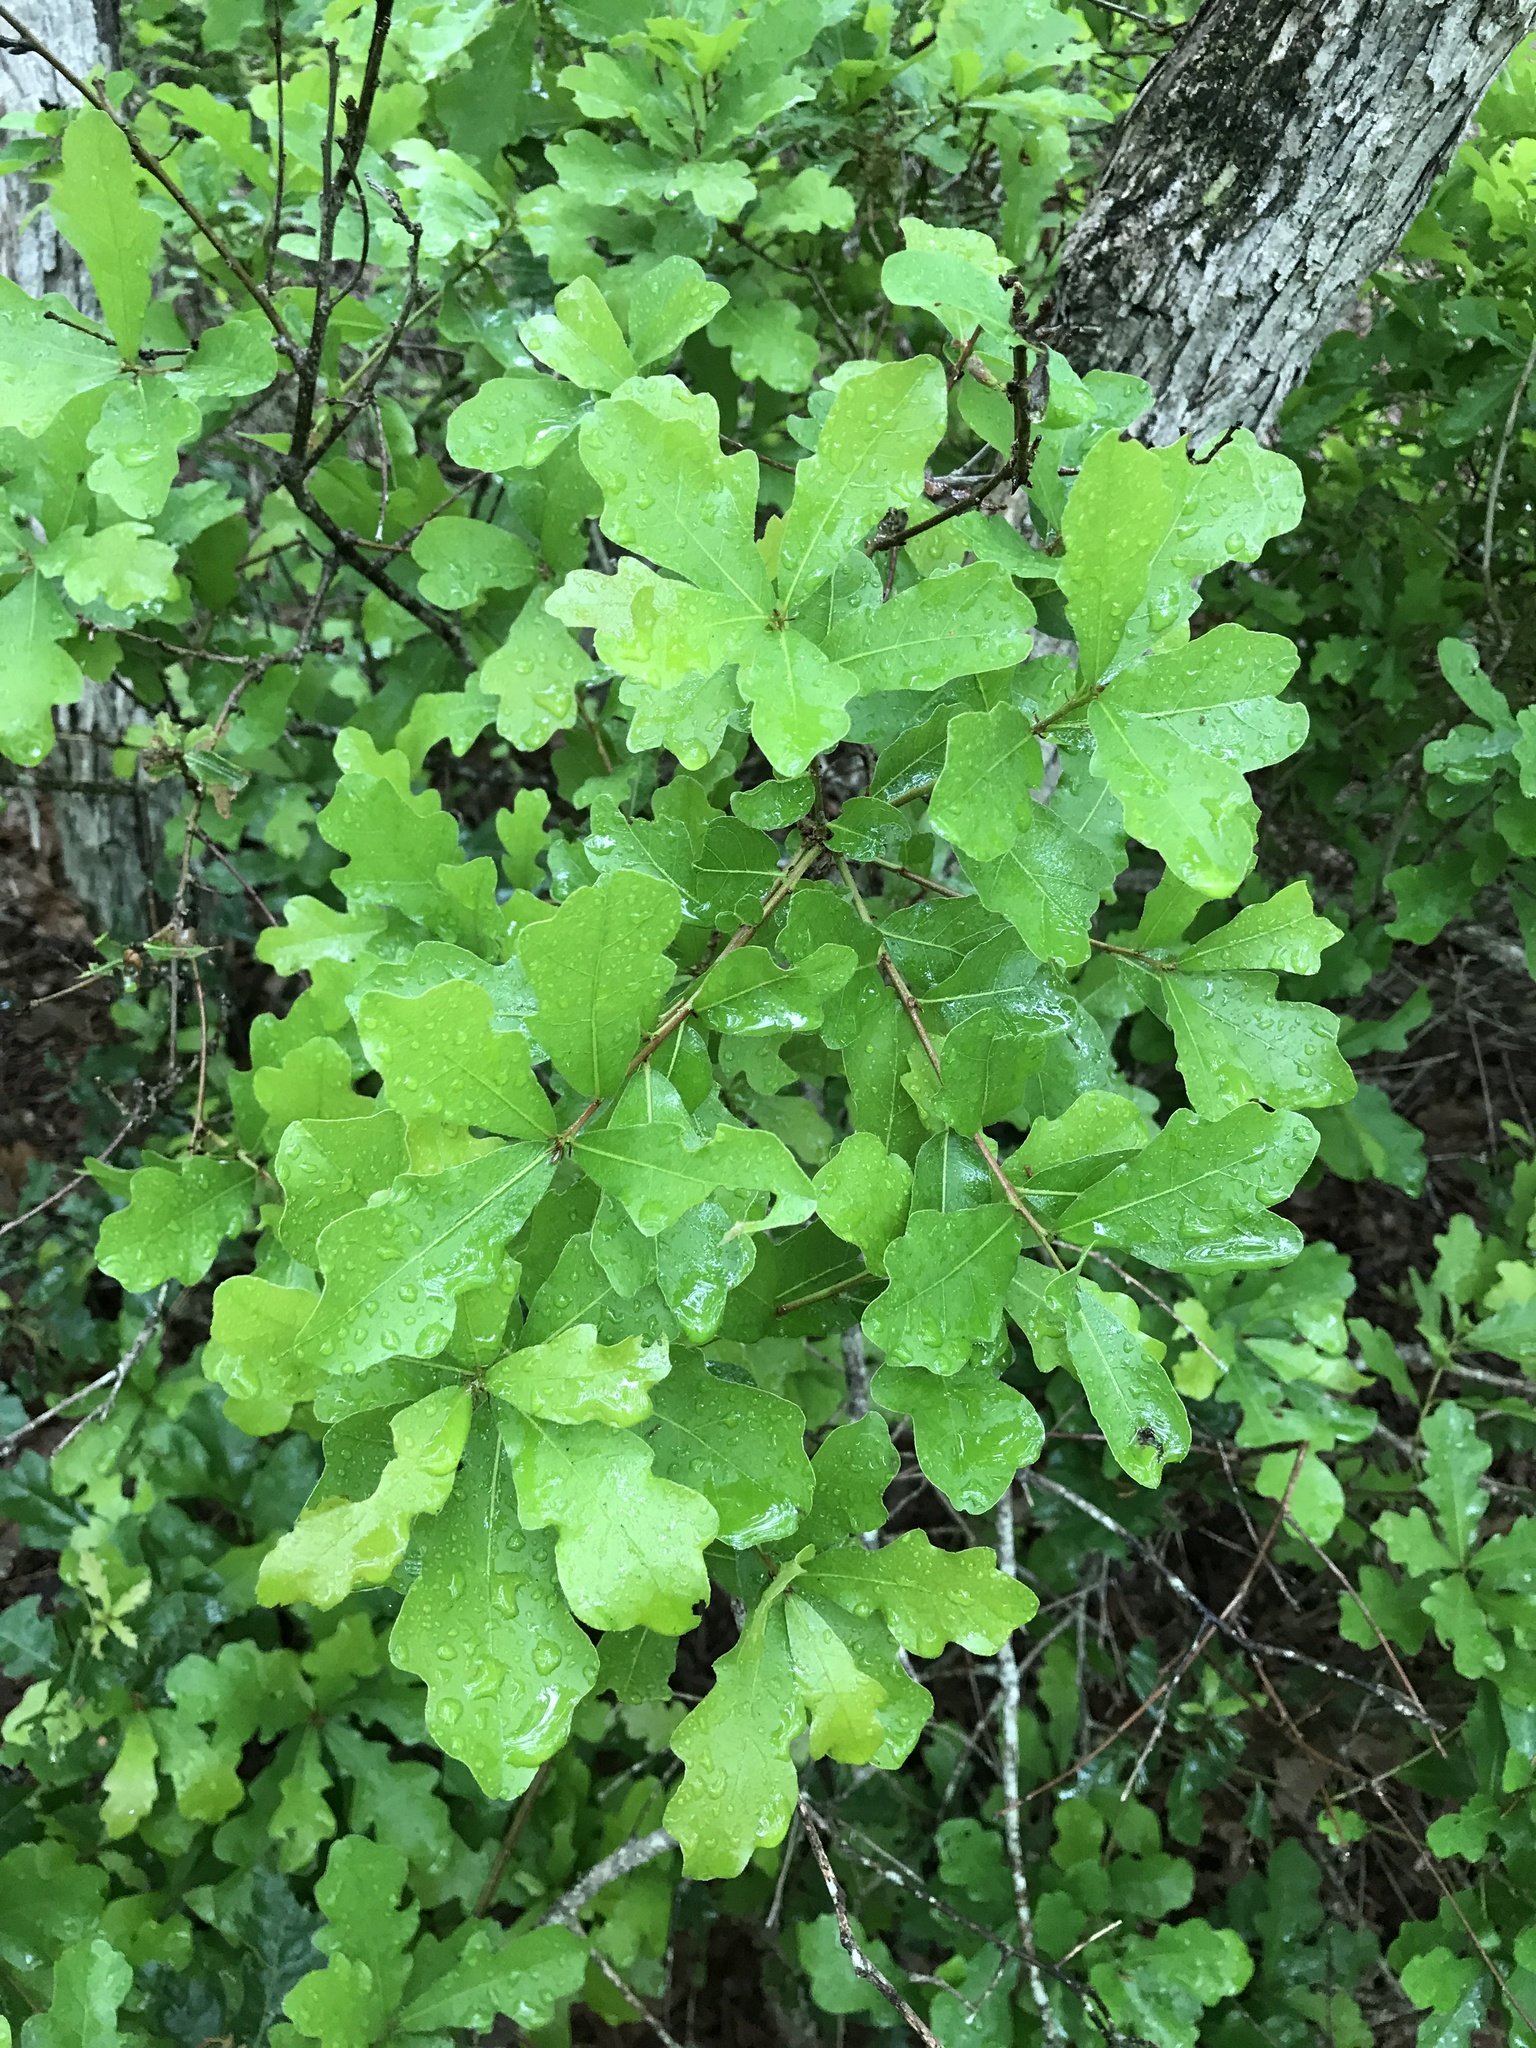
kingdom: Plantae
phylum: Tracheophyta
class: Magnoliopsida
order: Fagales
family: Fagaceae
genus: Quercus
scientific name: Quercus sinuata
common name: Durand oak
